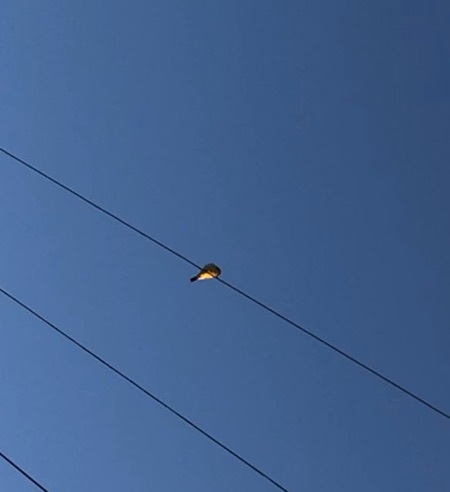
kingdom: Animalia
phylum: Chordata
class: Aves
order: Passeriformes
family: Tyrannidae
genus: Tyrannus
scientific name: Tyrannus vociferans
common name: Cassin's kingbird
